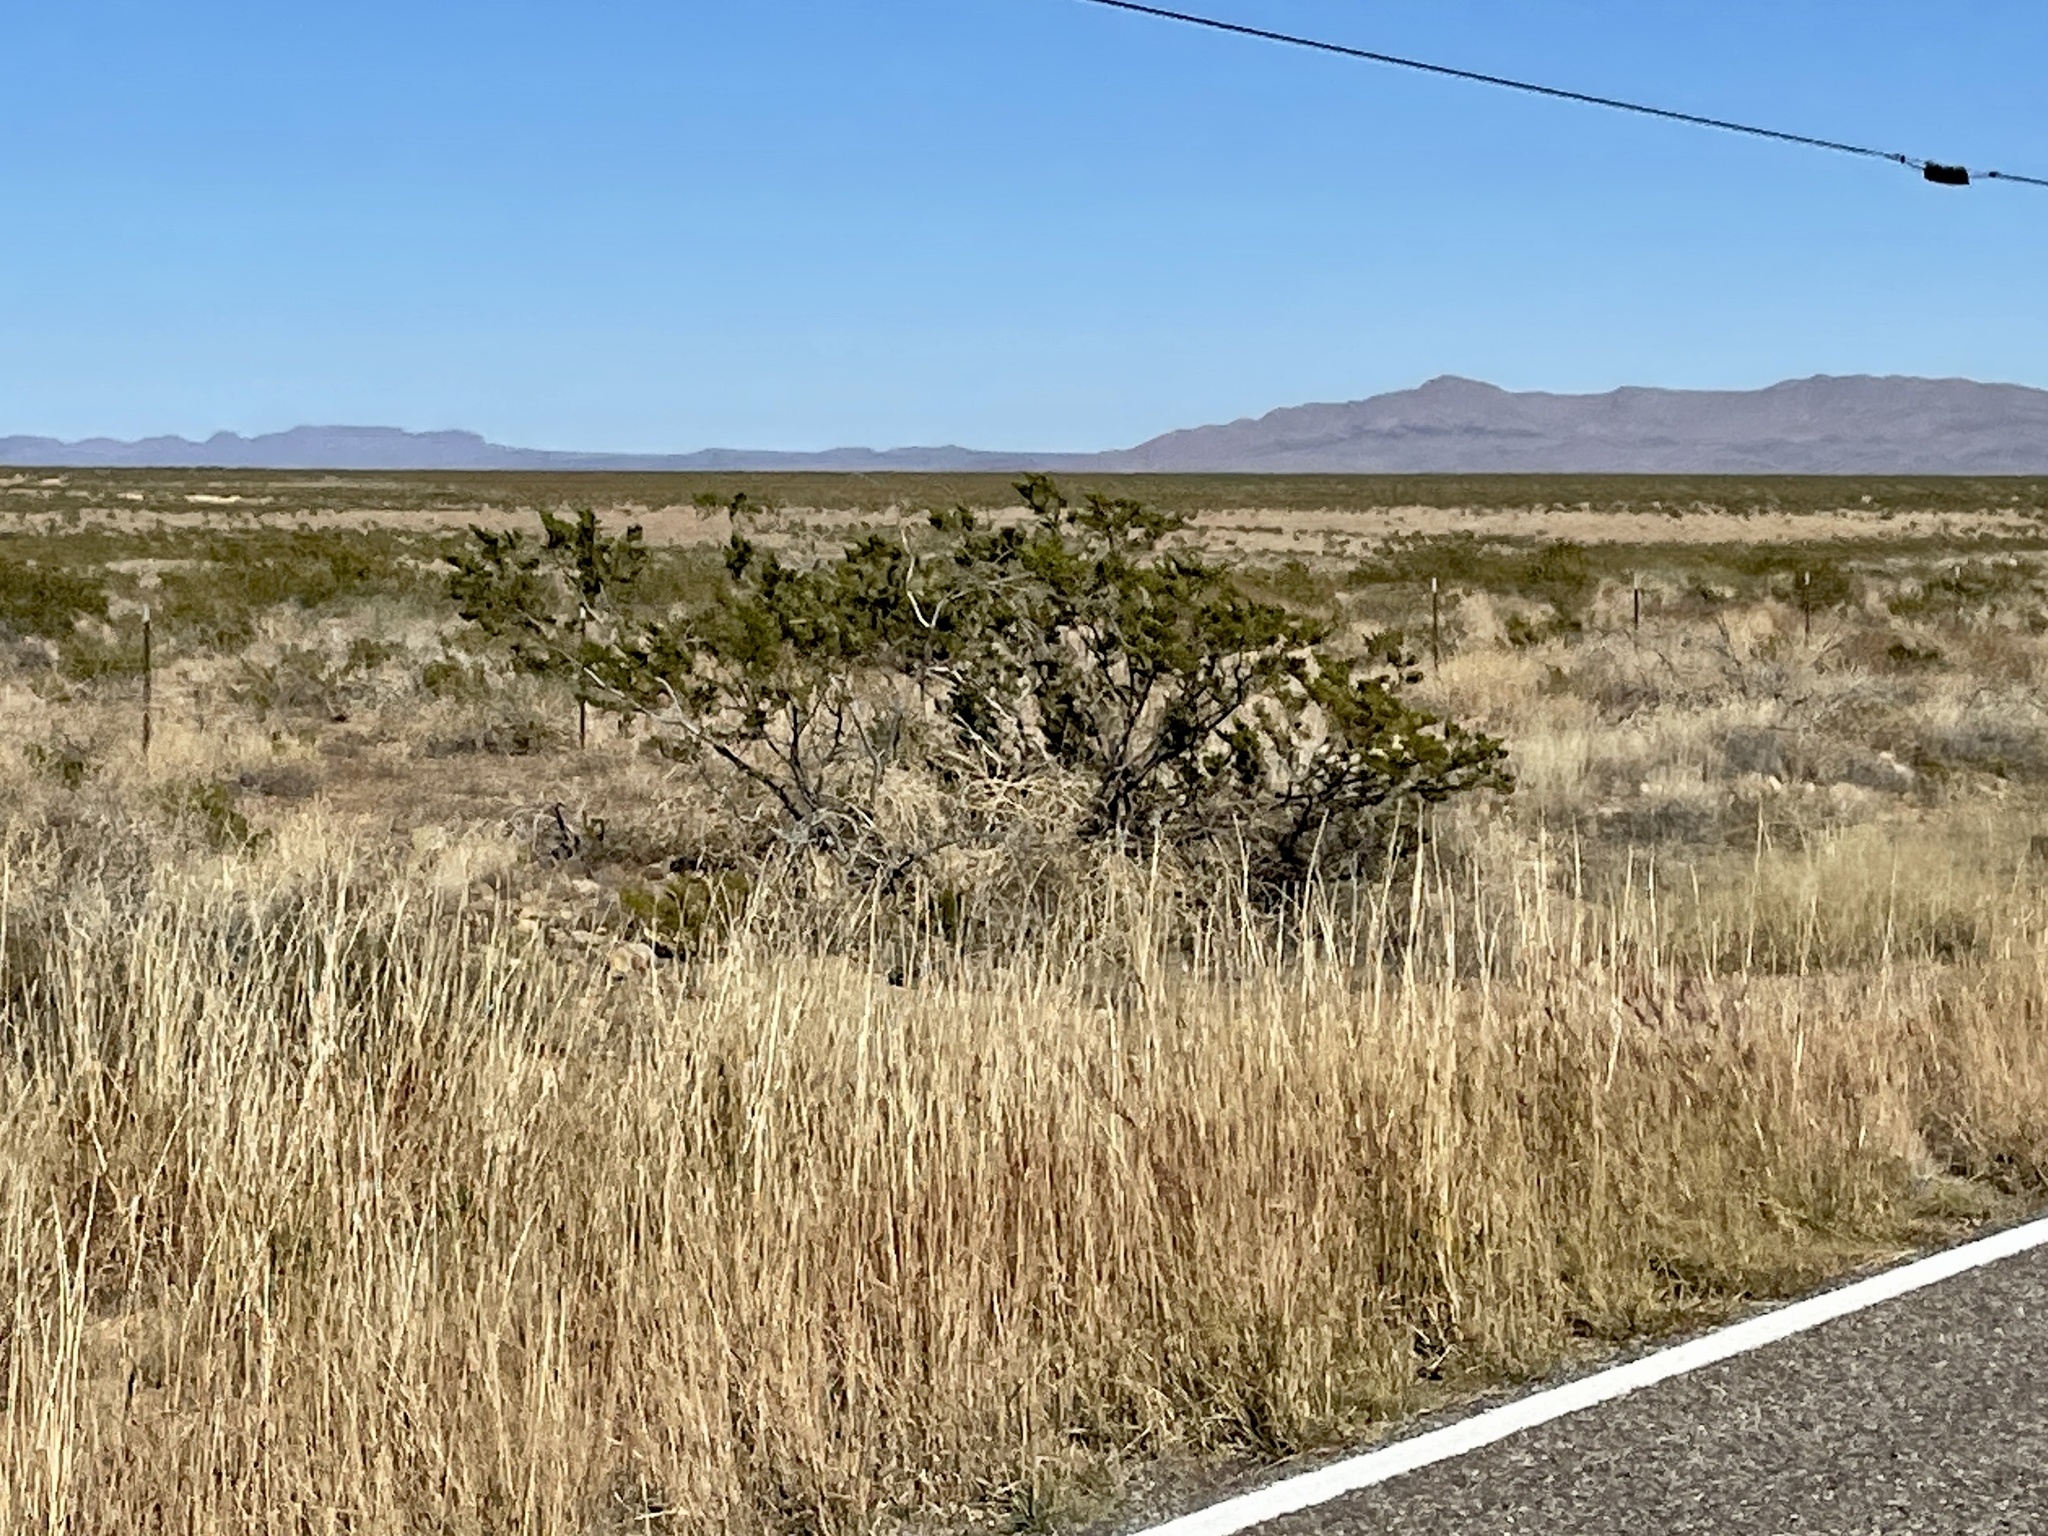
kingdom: Plantae
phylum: Tracheophyta
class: Magnoliopsida
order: Zygophyllales
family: Zygophyllaceae
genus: Larrea
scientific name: Larrea tridentata
